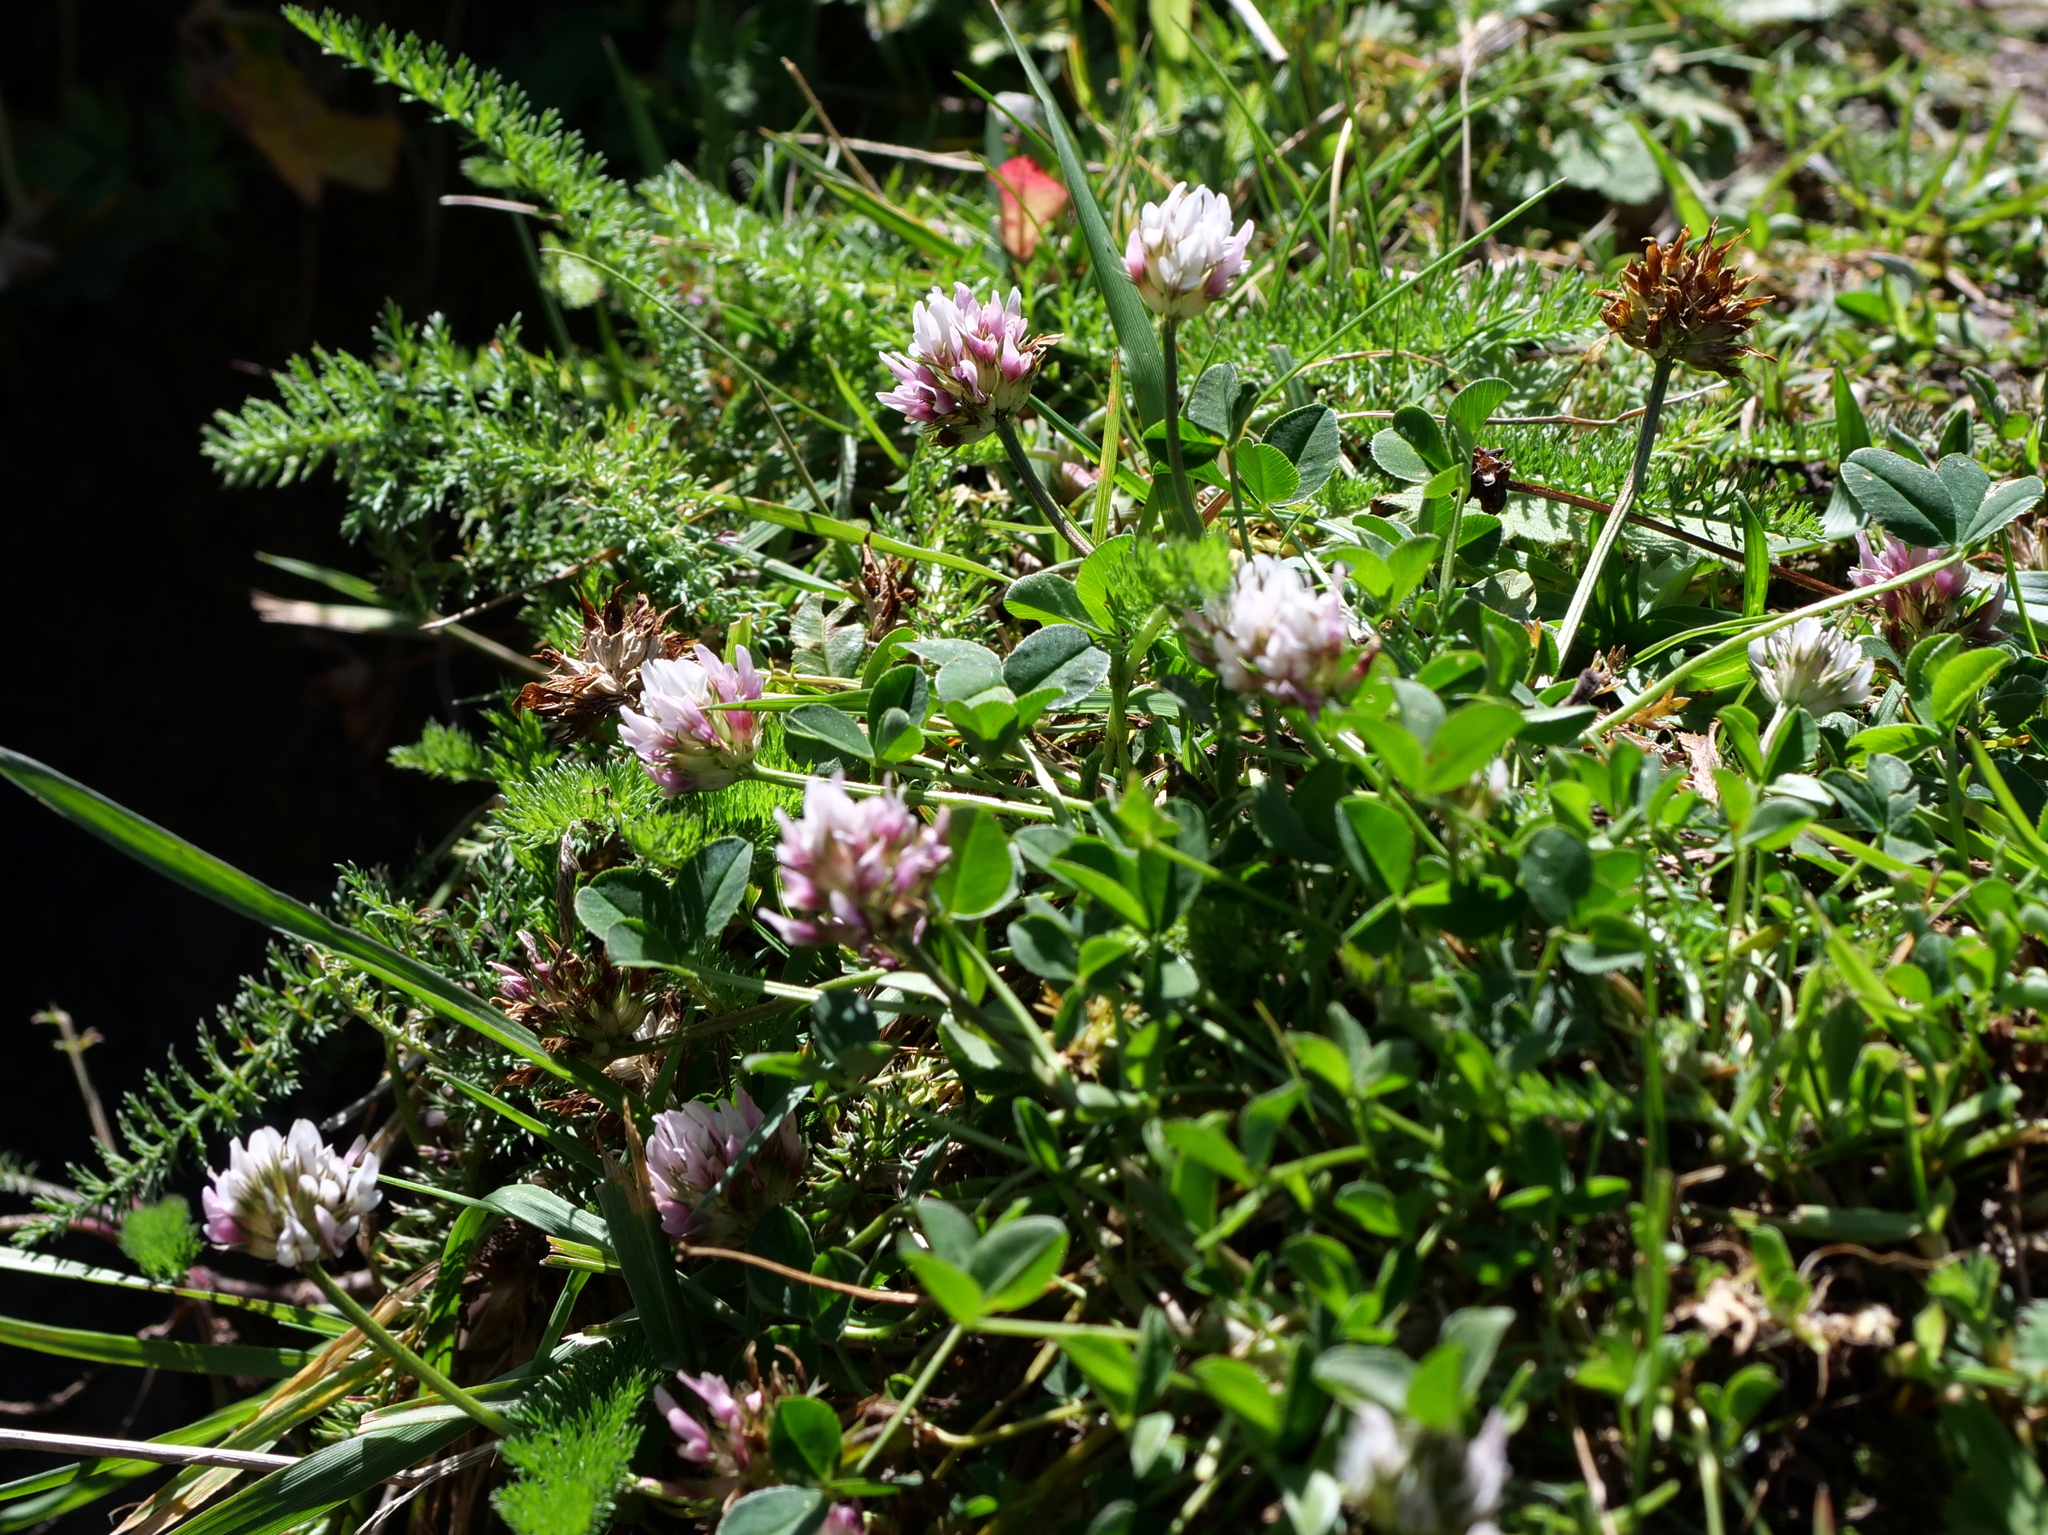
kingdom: Plantae
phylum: Tracheophyta
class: Magnoliopsida
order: Fabales
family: Fabaceae
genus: Trifolium
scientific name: Trifolium thalii
